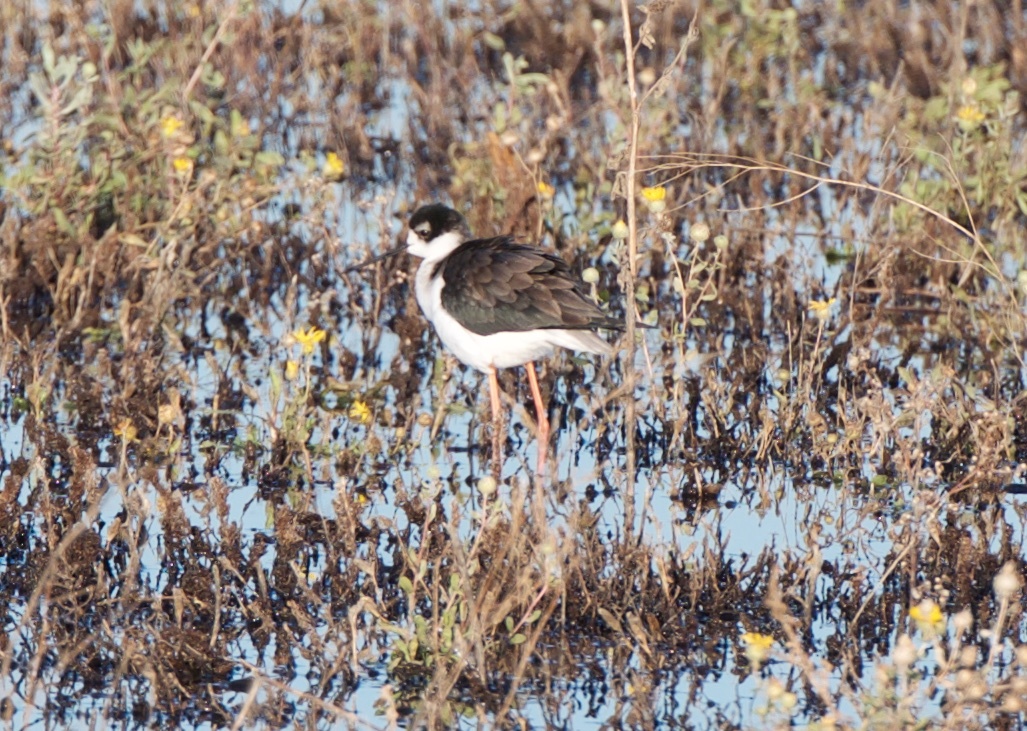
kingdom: Animalia
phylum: Chordata
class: Aves
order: Charadriiformes
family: Recurvirostridae
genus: Himantopus
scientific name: Himantopus mexicanus
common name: Black-necked stilt
